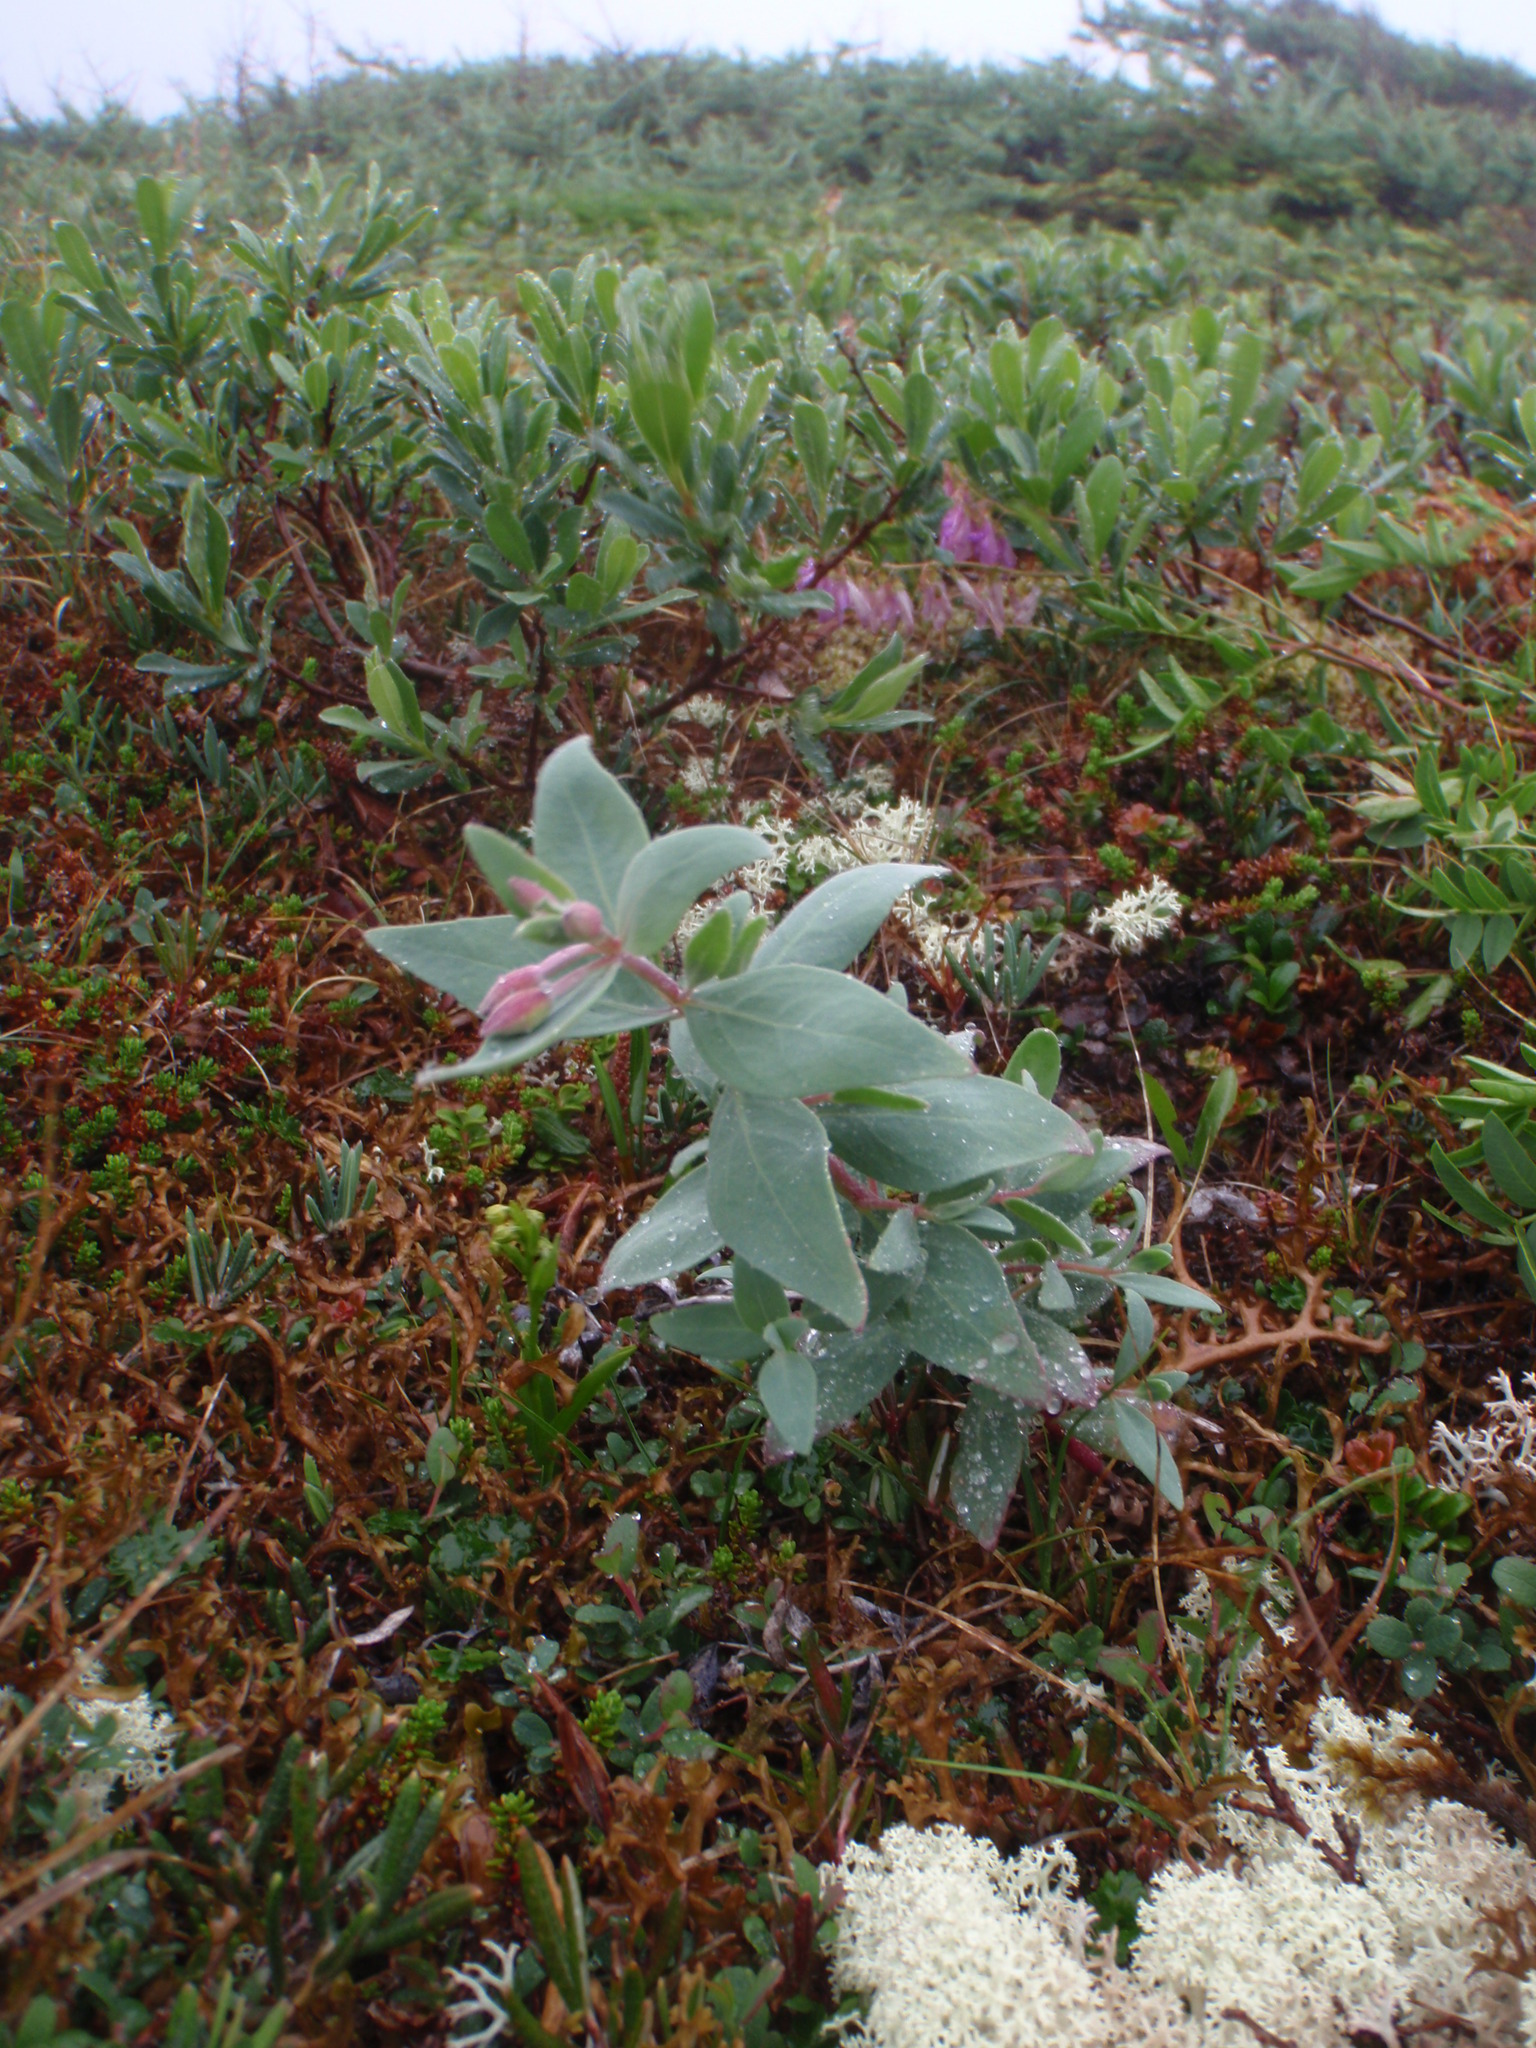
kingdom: Plantae
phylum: Tracheophyta
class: Magnoliopsida
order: Myrtales
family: Onagraceae
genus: Chamaenerion
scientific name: Chamaenerion latifolium
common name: Dwarf fireweed
